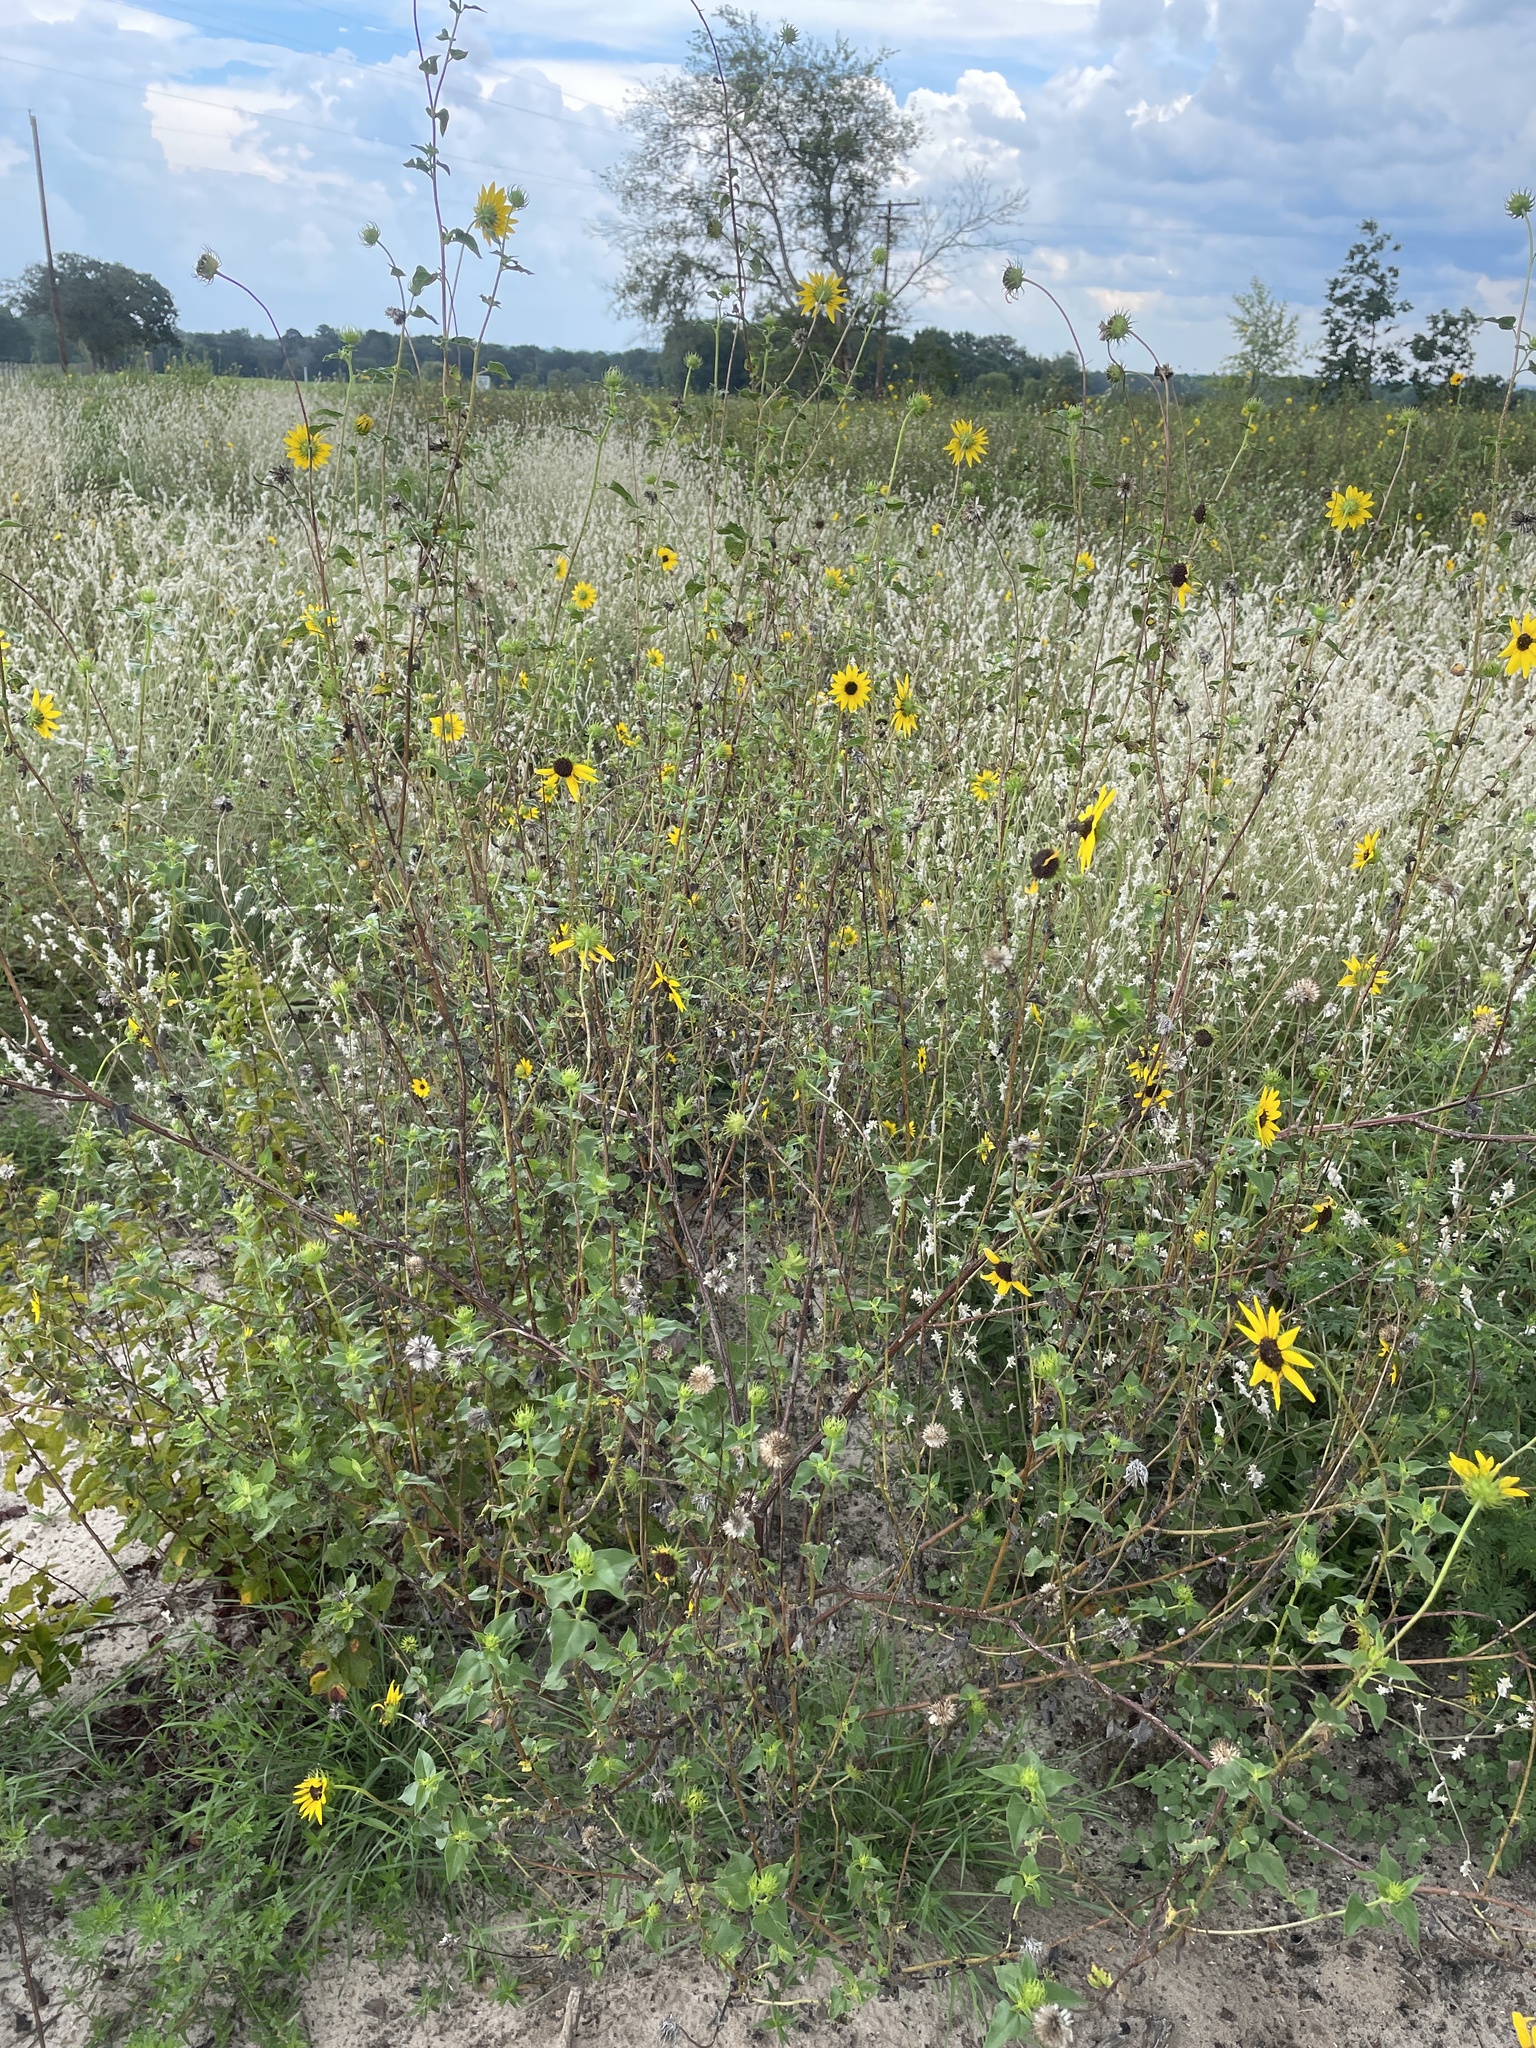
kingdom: Plantae
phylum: Tracheophyta
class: Magnoliopsida
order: Asterales
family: Asteraceae
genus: Helianthus
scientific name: Helianthus debilis
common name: Weak sunflower
